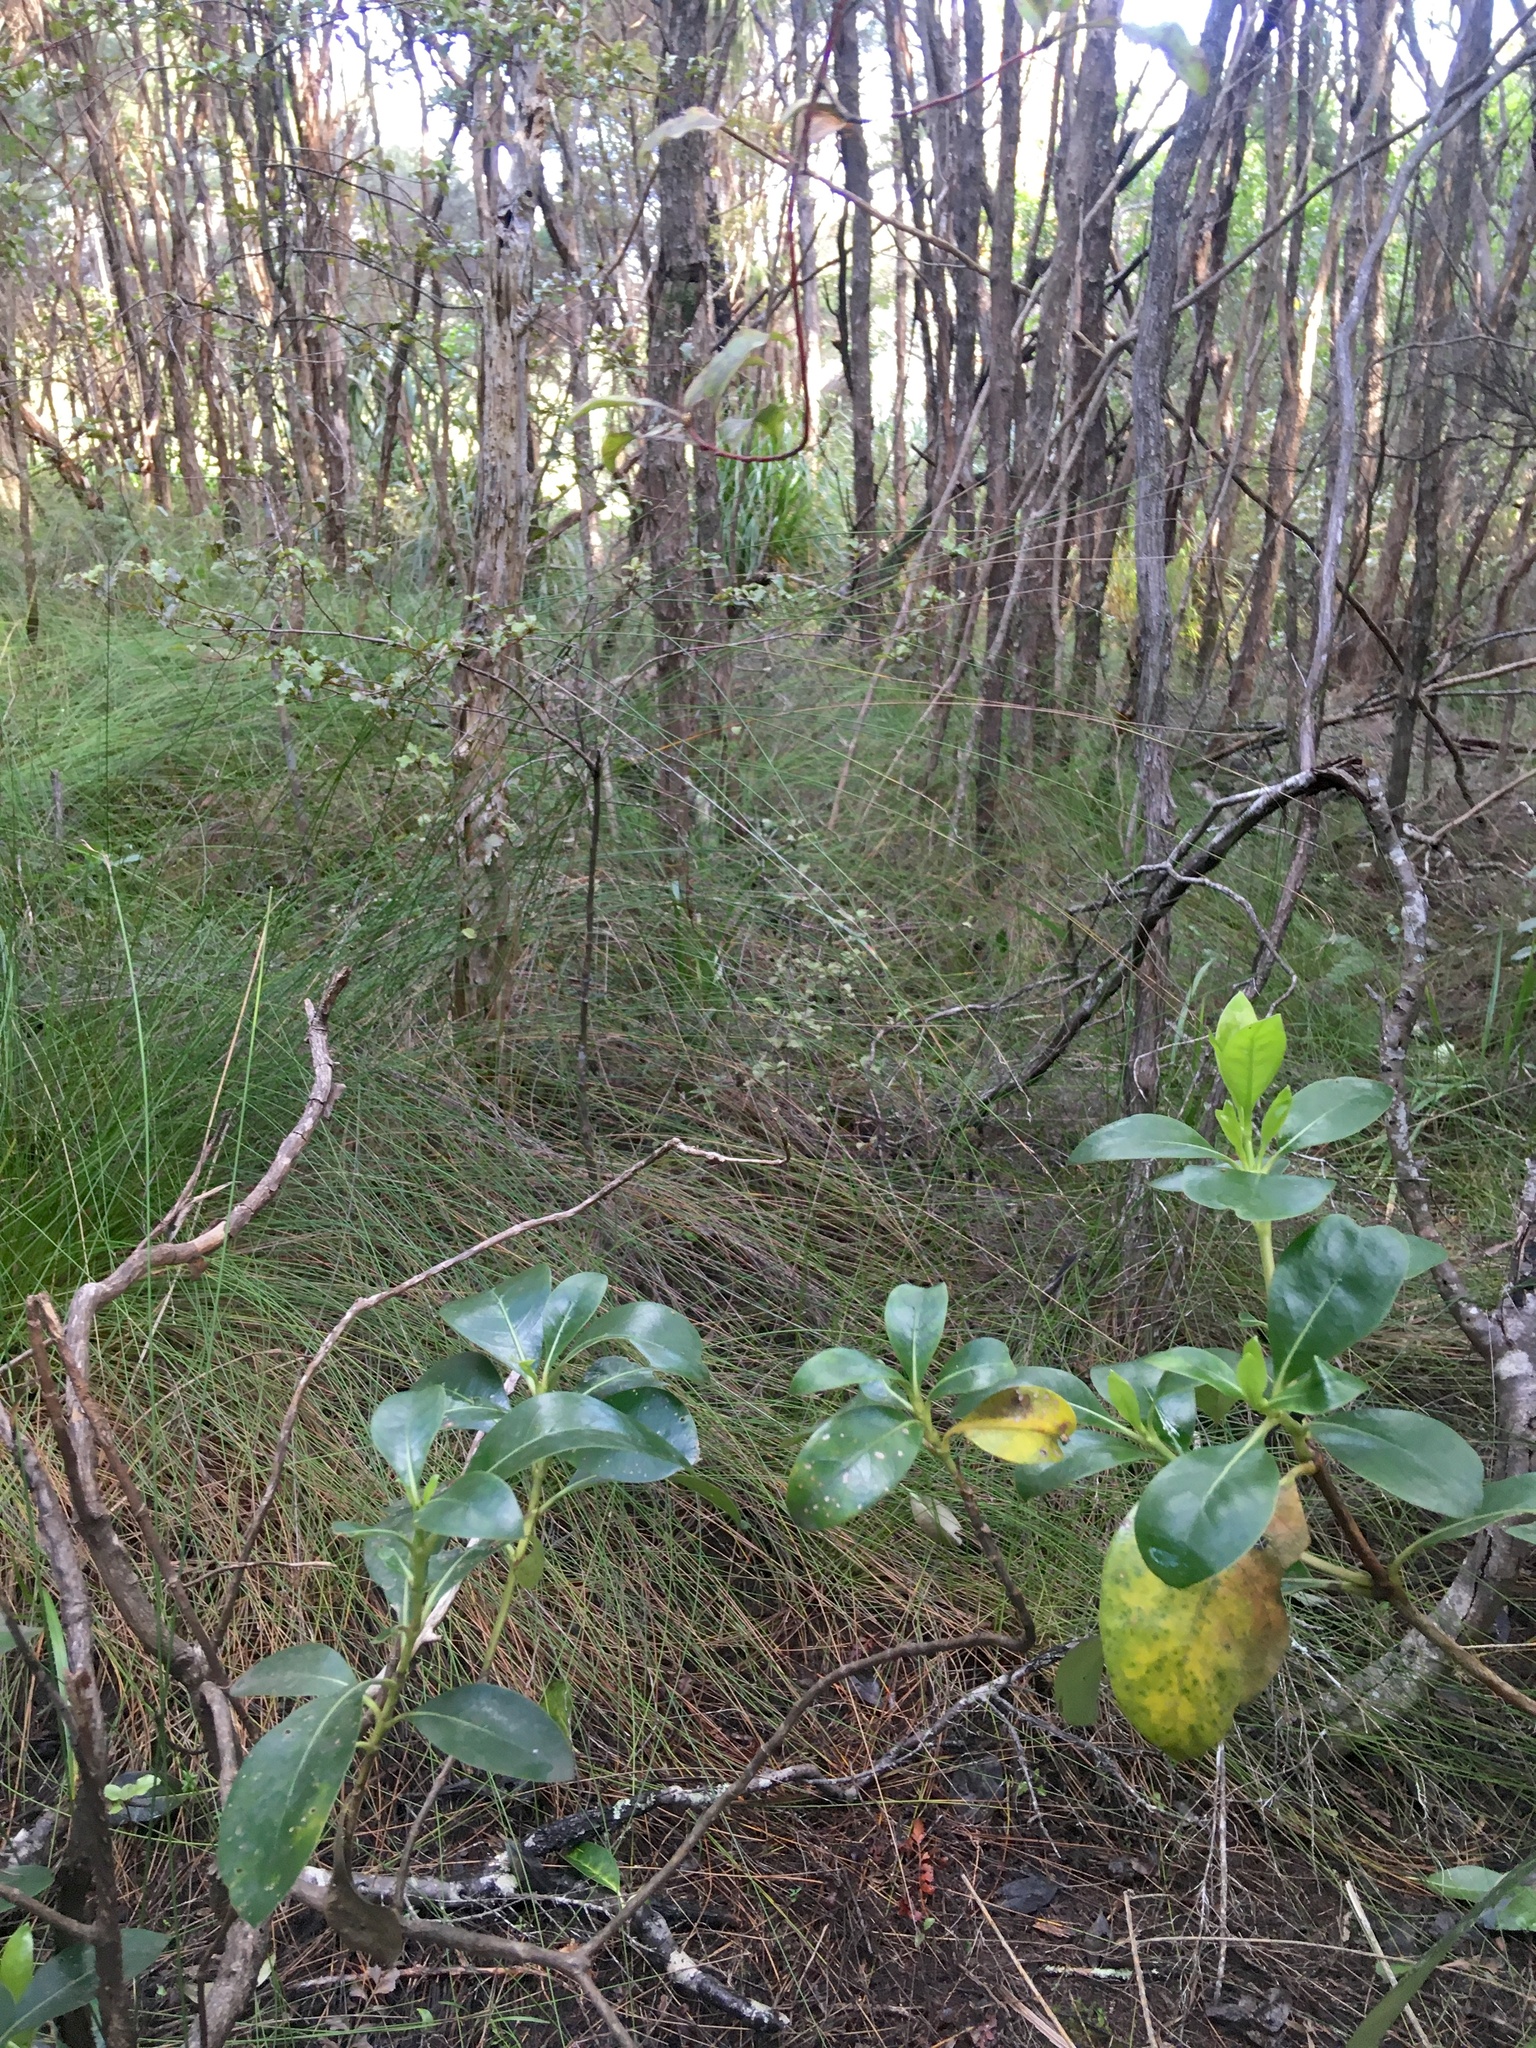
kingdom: Plantae
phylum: Tracheophyta
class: Magnoliopsida
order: Ericales
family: Primulaceae
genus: Myrsine
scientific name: Myrsine australis
